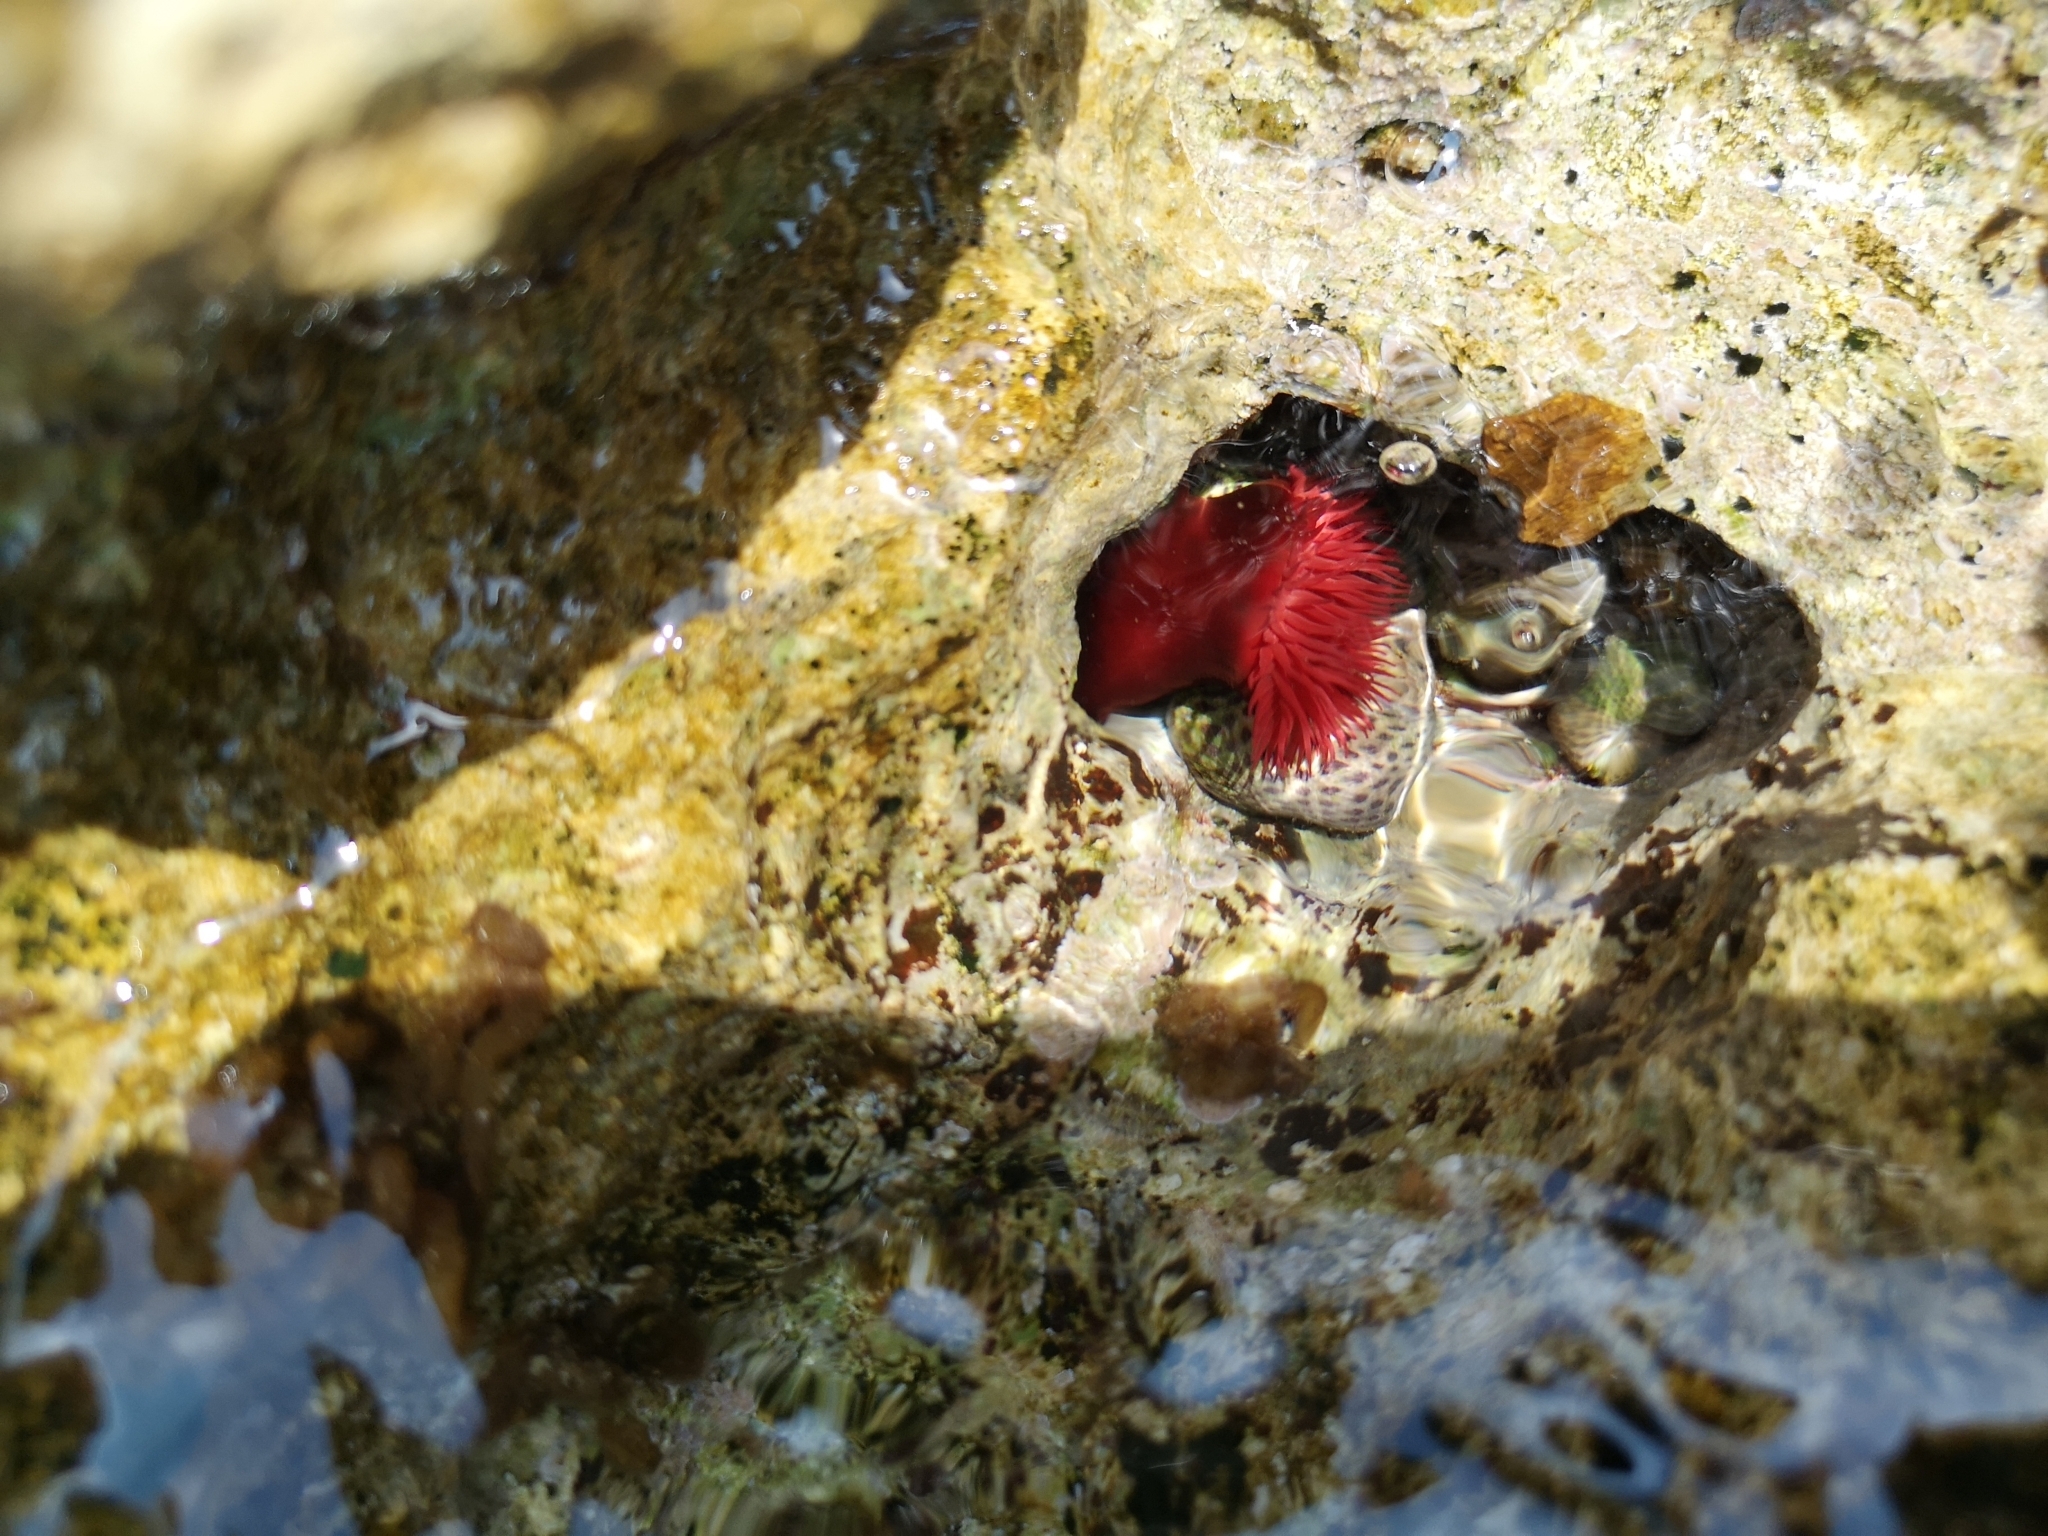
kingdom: Animalia
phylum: Cnidaria
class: Anthozoa
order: Actiniaria
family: Actiniidae
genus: Actinia
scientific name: Actinia mediterranea
